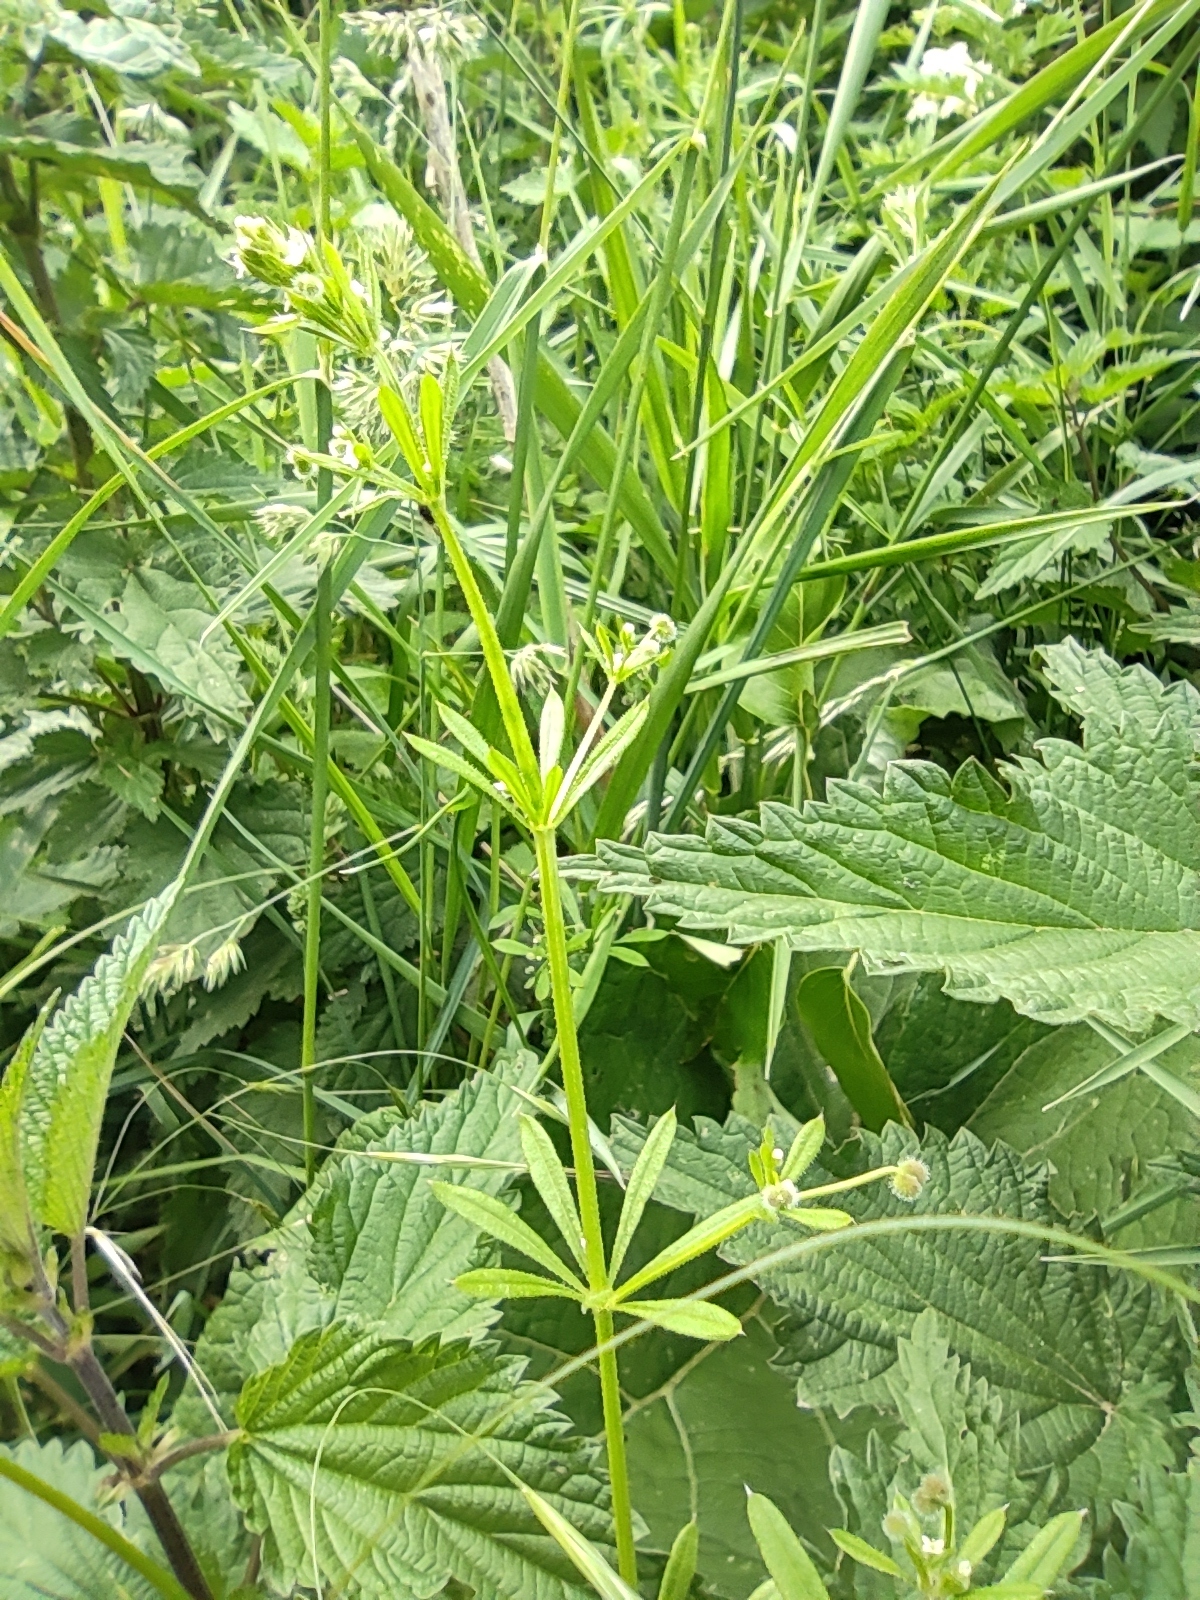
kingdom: Plantae
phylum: Tracheophyta
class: Magnoliopsida
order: Gentianales
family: Rubiaceae
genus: Galium
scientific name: Galium aparine
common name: Cleavers
